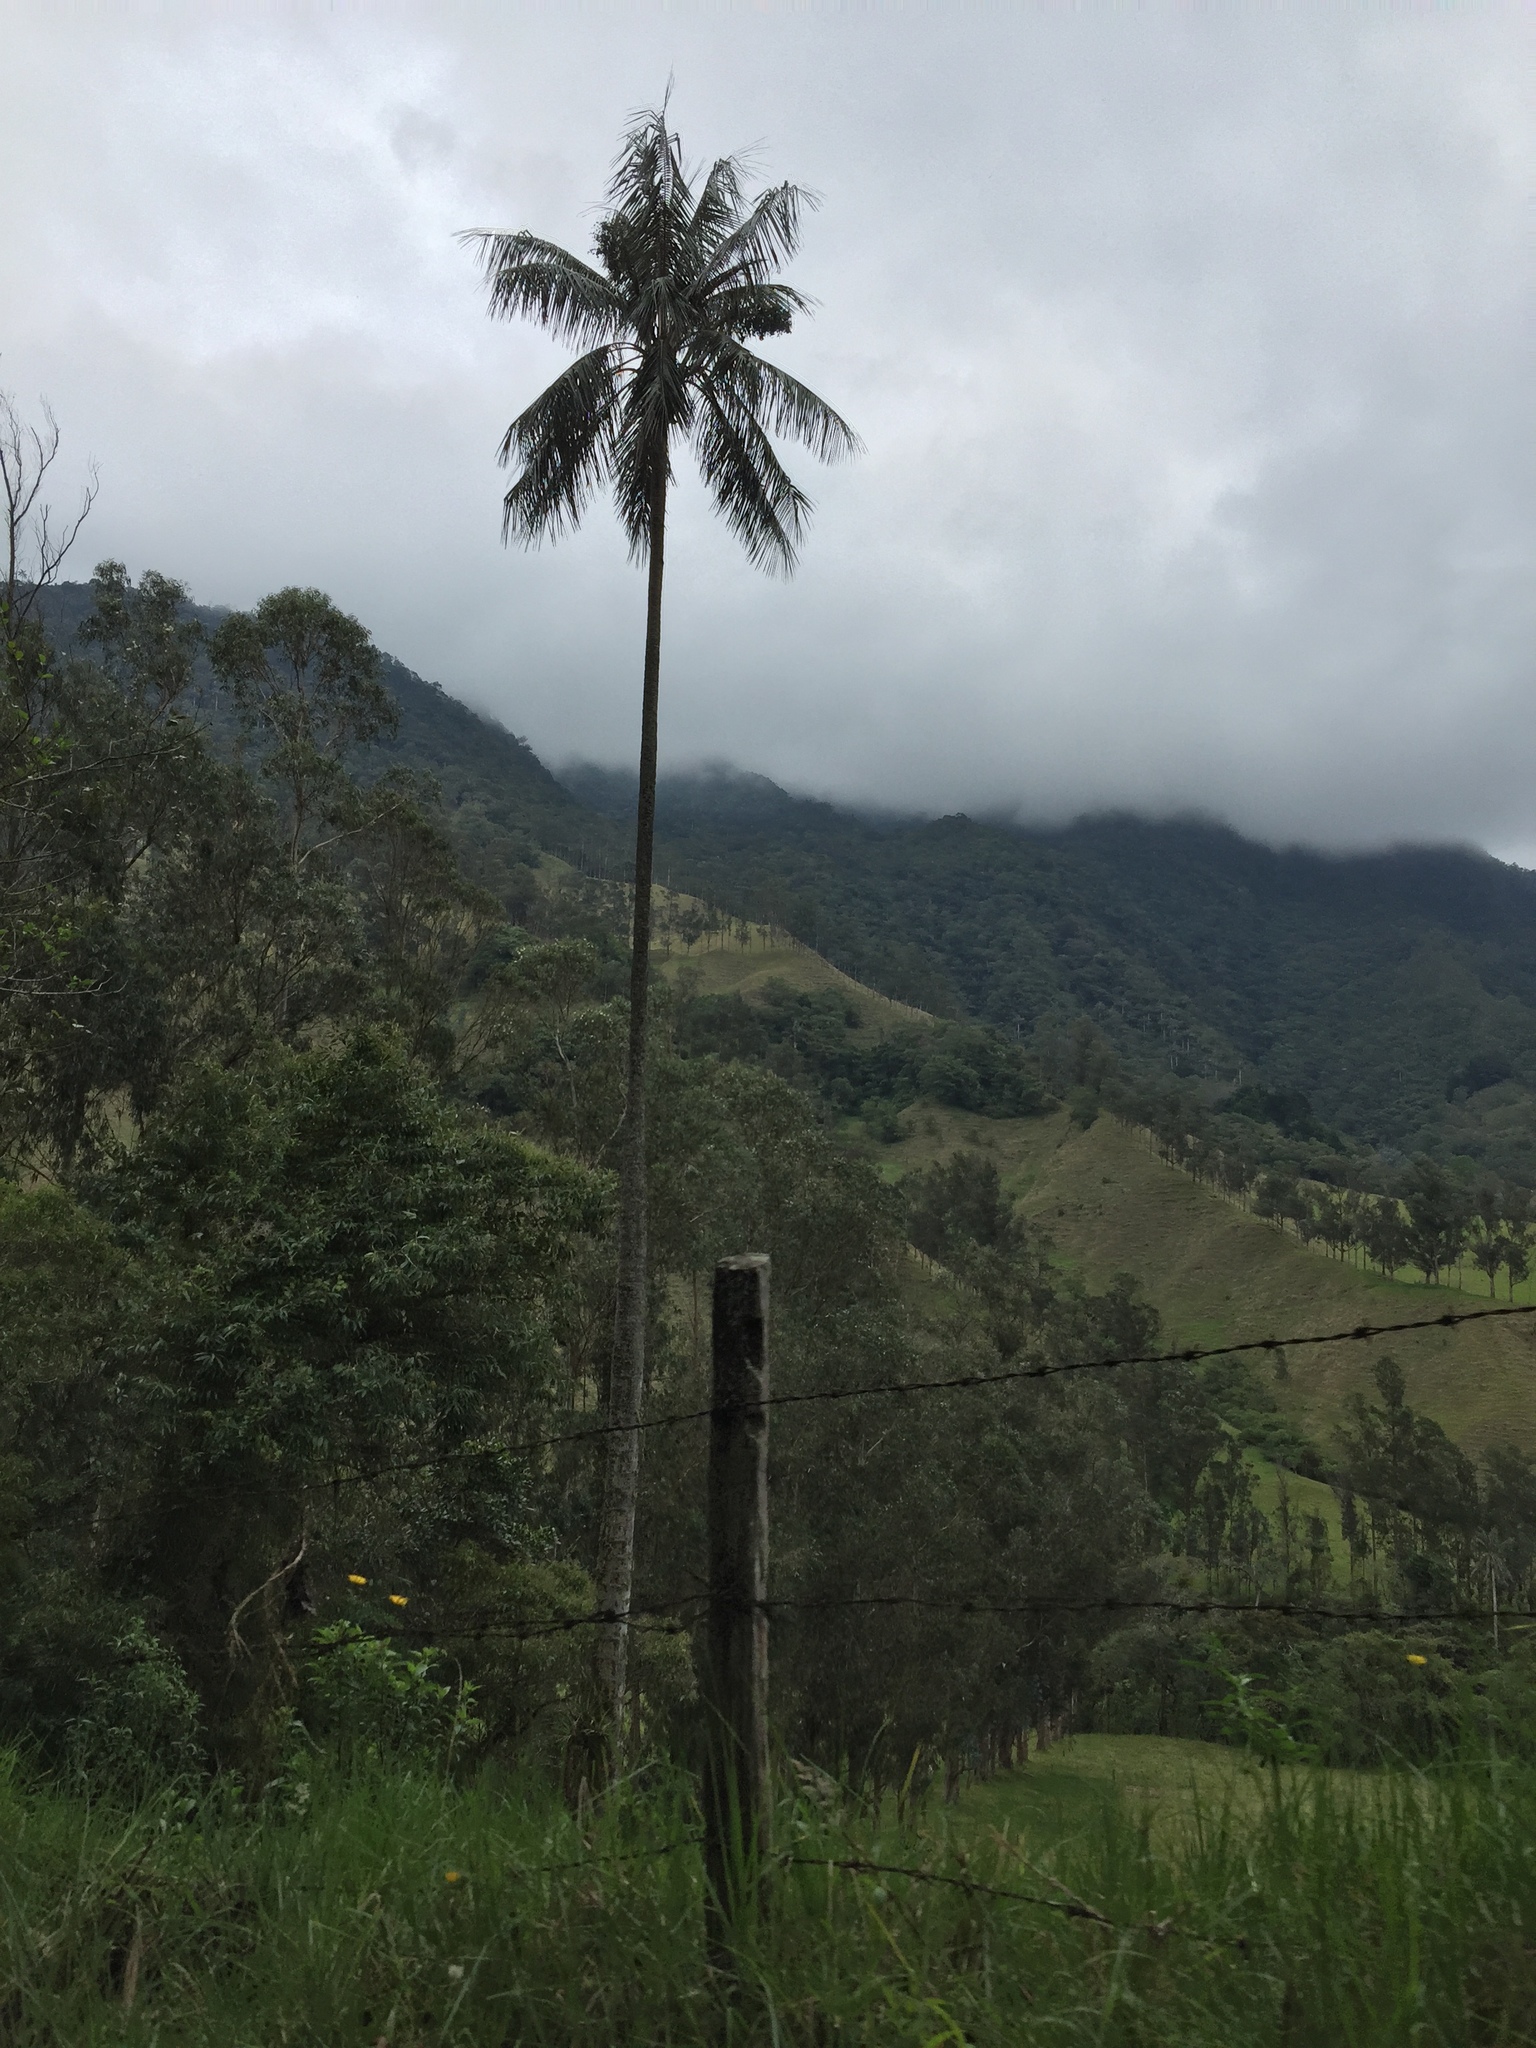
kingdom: Plantae
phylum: Tracheophyta
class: Liliopsida
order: Arecales
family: Arecaceae
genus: Ceroxylon
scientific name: Ceroxylon quindiuense
